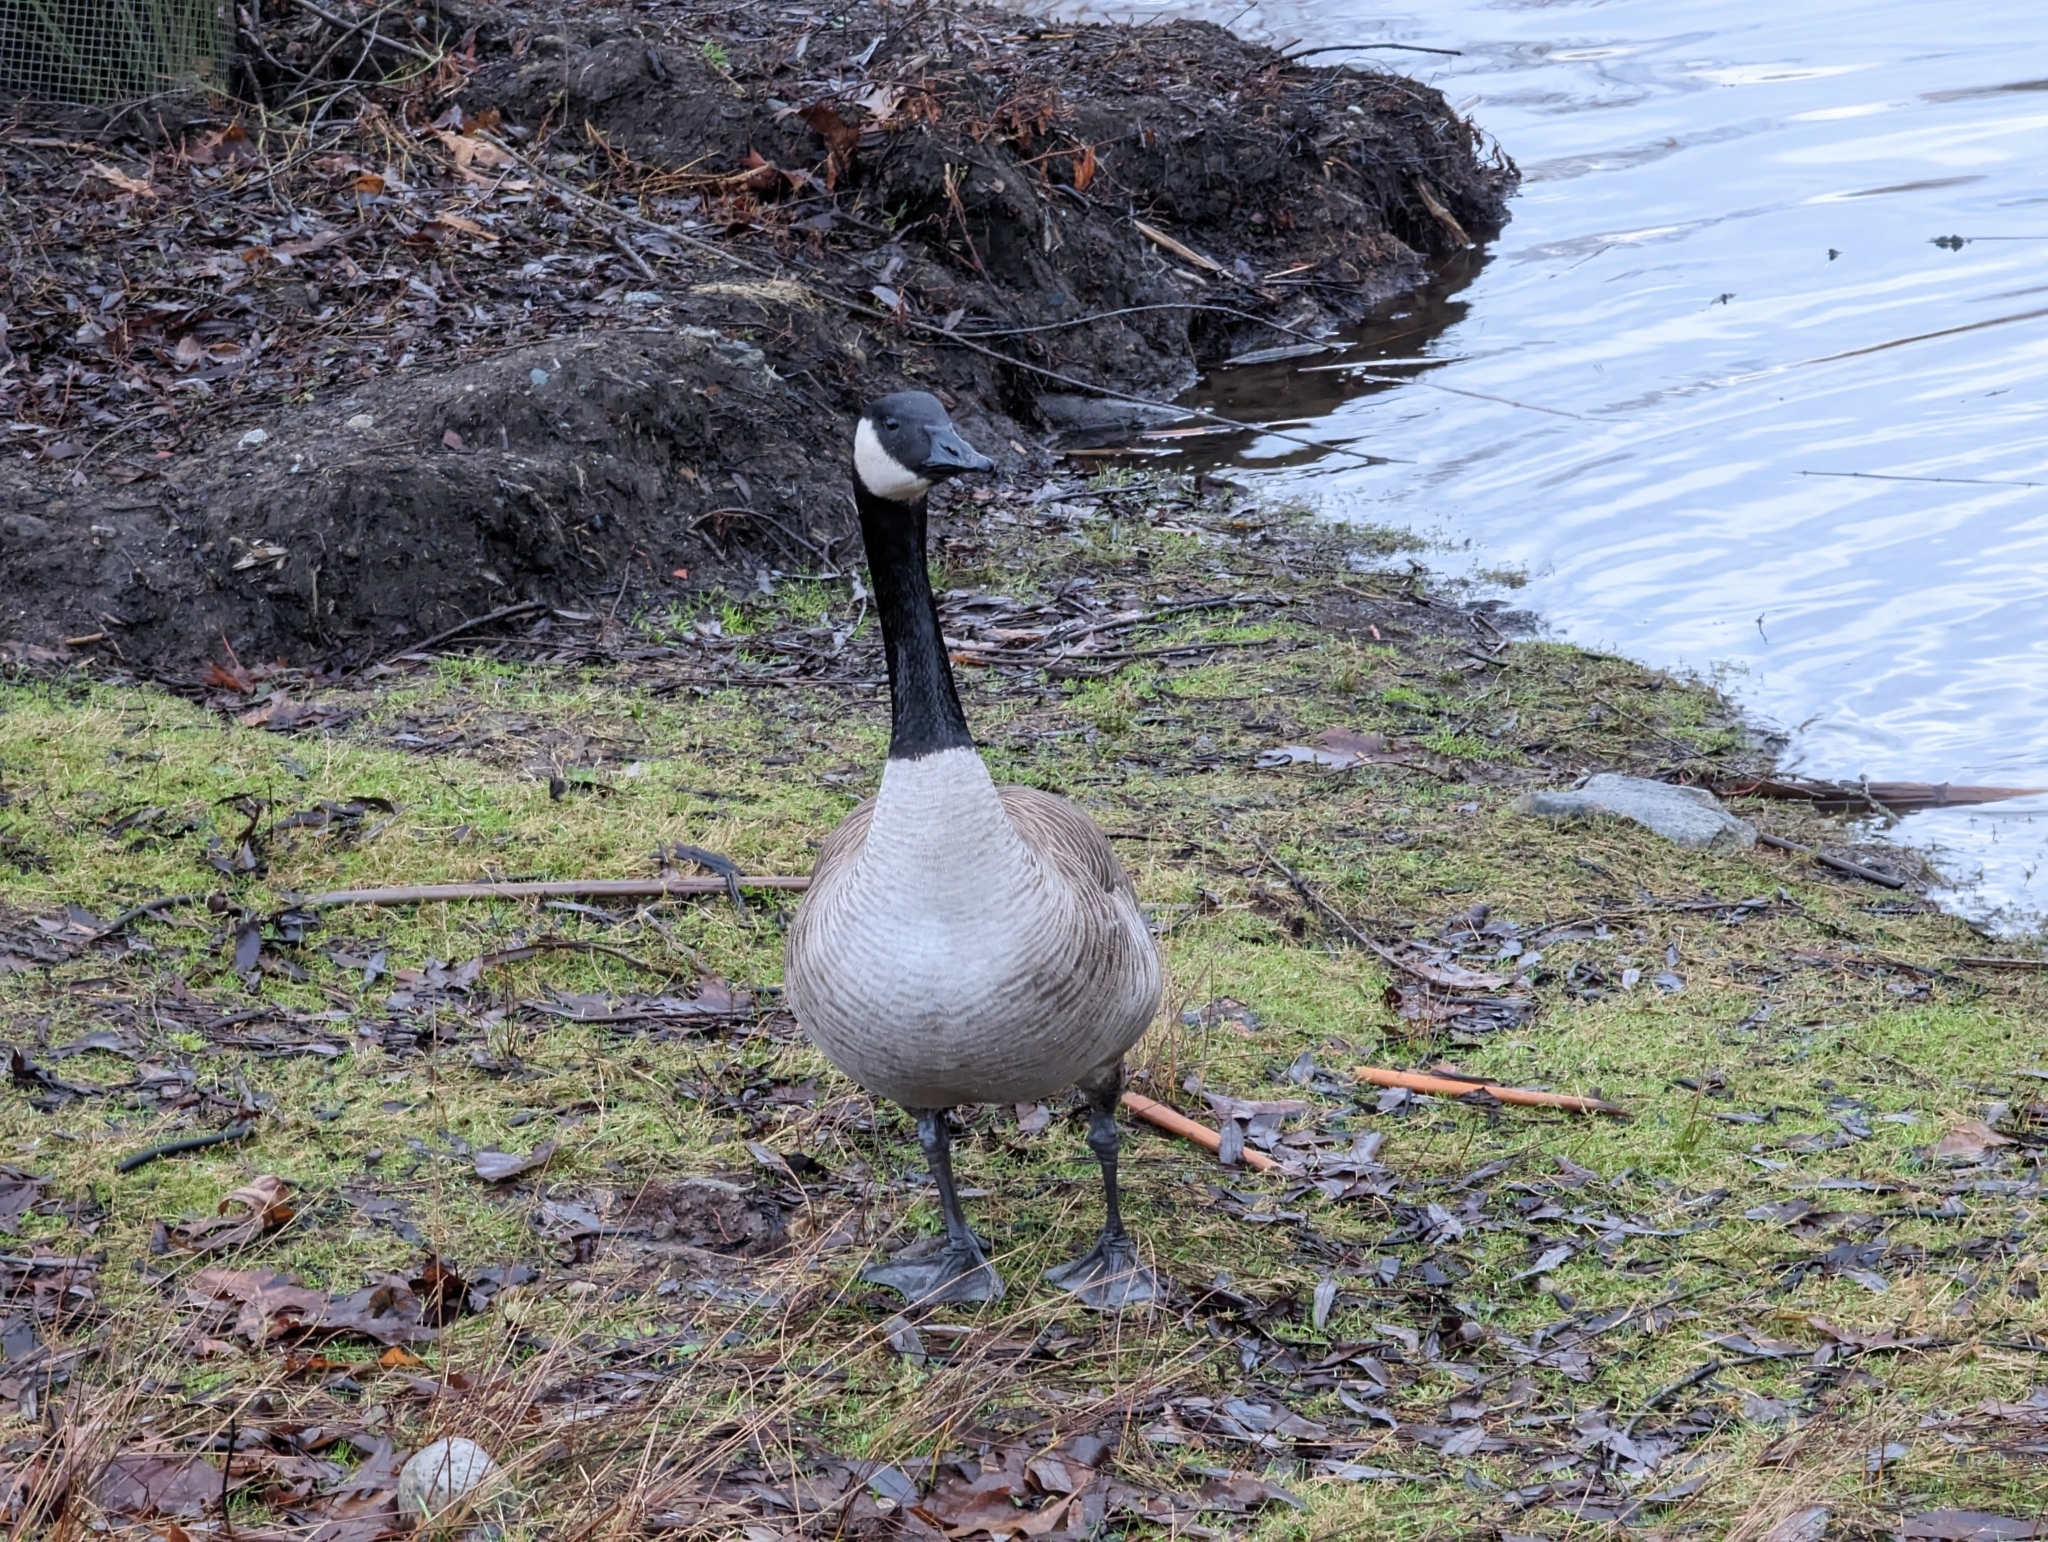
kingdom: Animalia
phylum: Chordata
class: Aves
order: Anseriformes
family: Anatidae
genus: Branta
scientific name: Branta canadensis
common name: Canada goose
